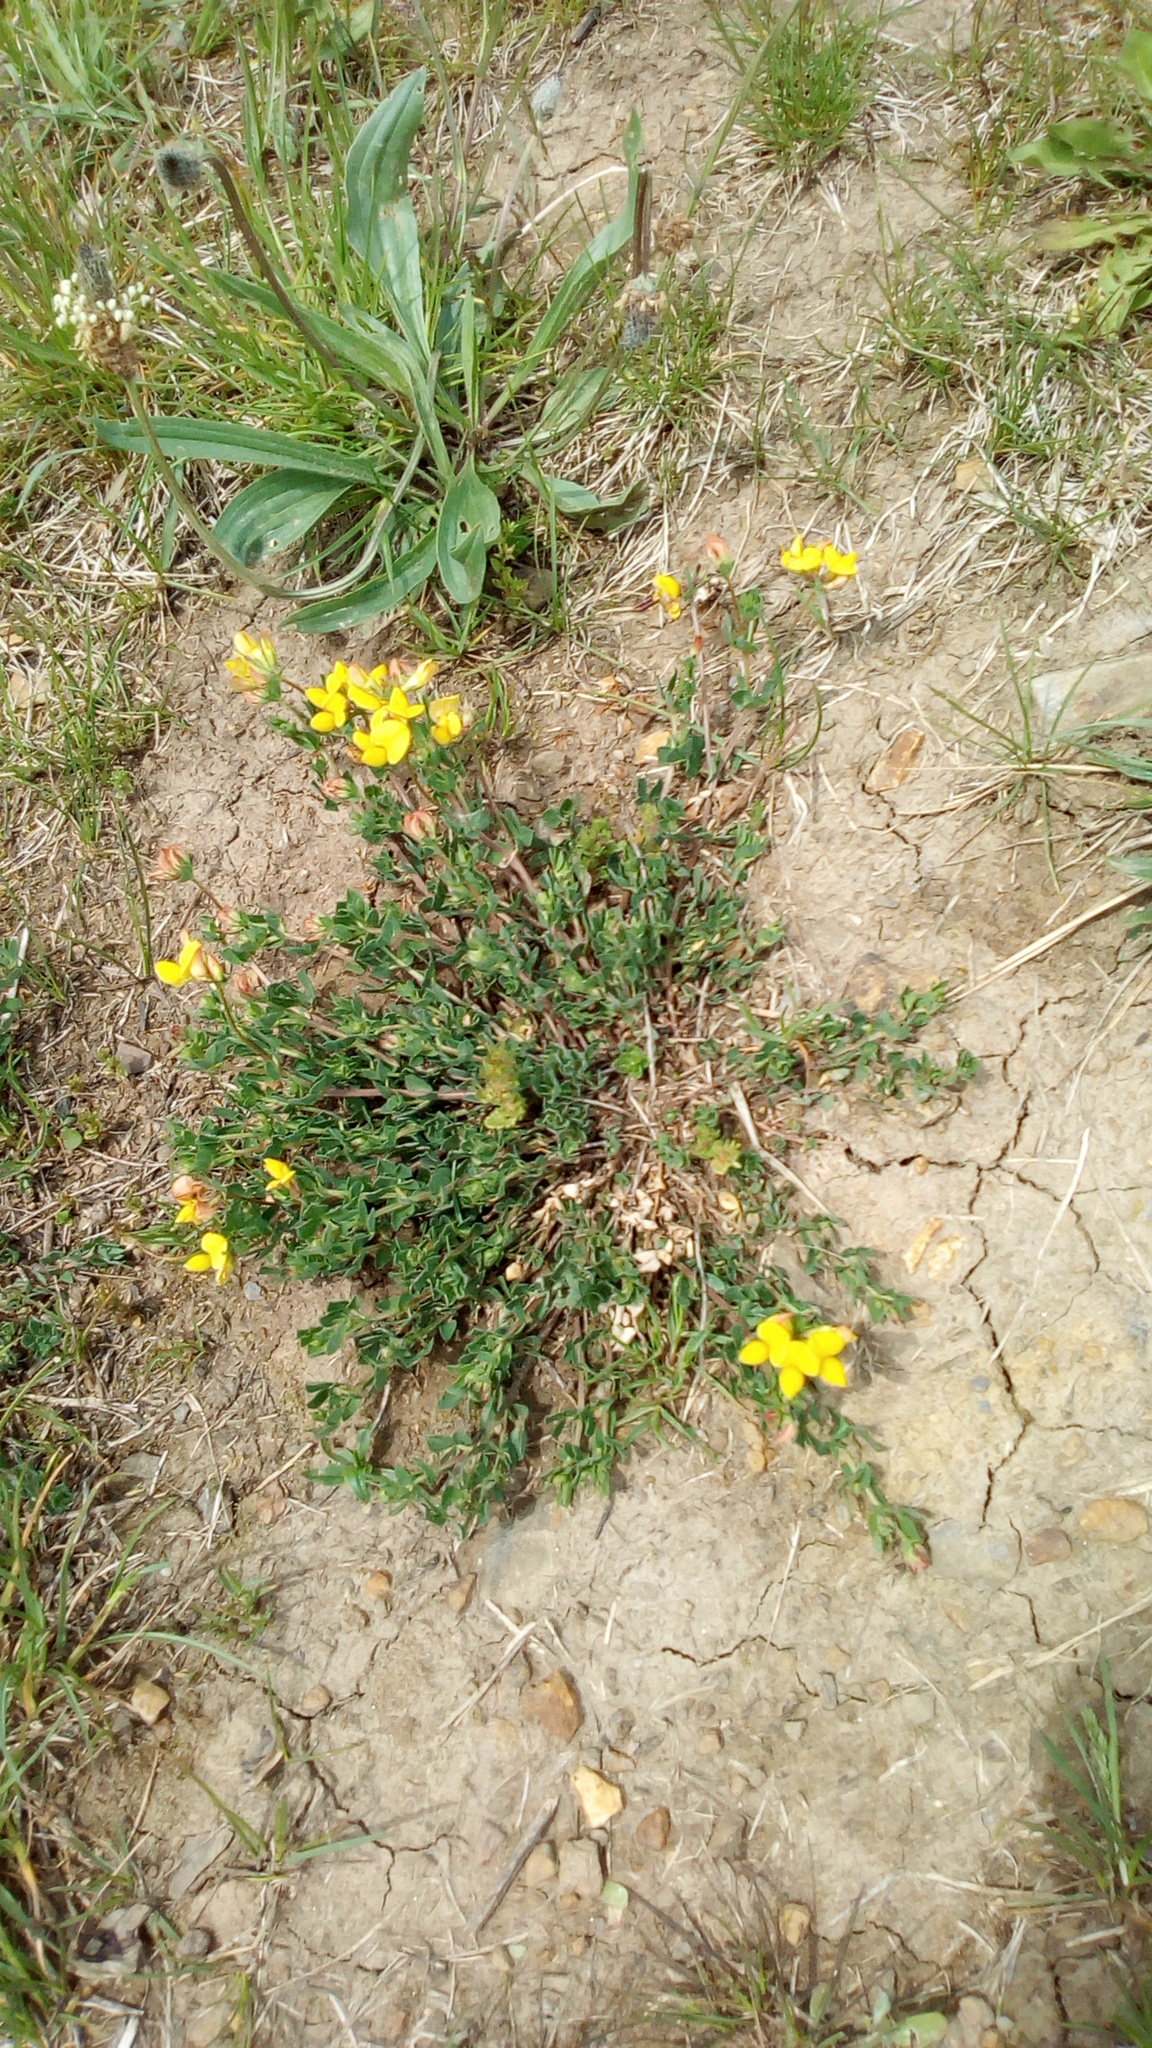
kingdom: Plantae
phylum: Tracheophyta
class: Magnoliopsida
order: Fabales
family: Fabaceae
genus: Lotus
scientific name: Lotus corniculatus
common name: Common bird's-foot-trefoil
